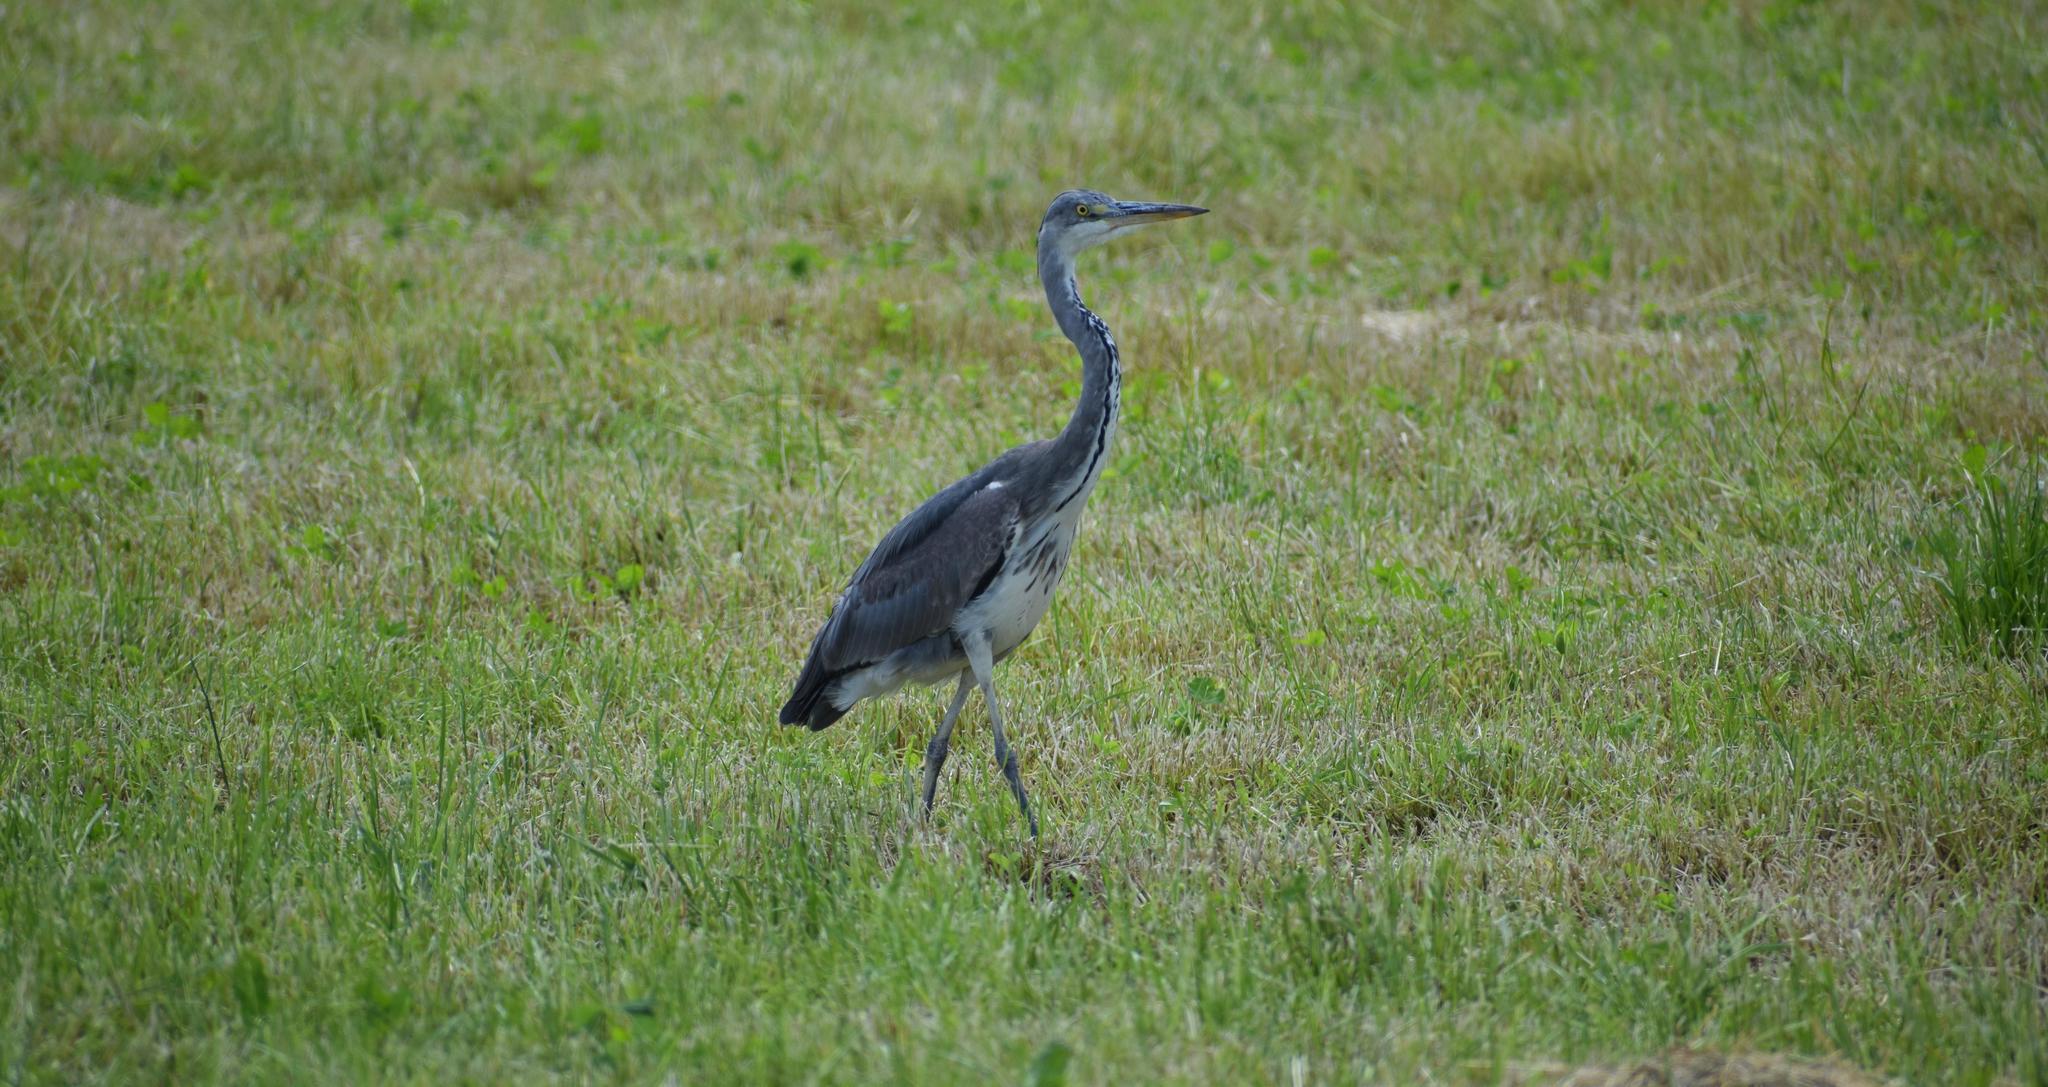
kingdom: Animalia
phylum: Chordata
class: Aves
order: Pelecaniformes
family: Ardeidae
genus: Ardea
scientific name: Ardea cinerea
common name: Grey heron
